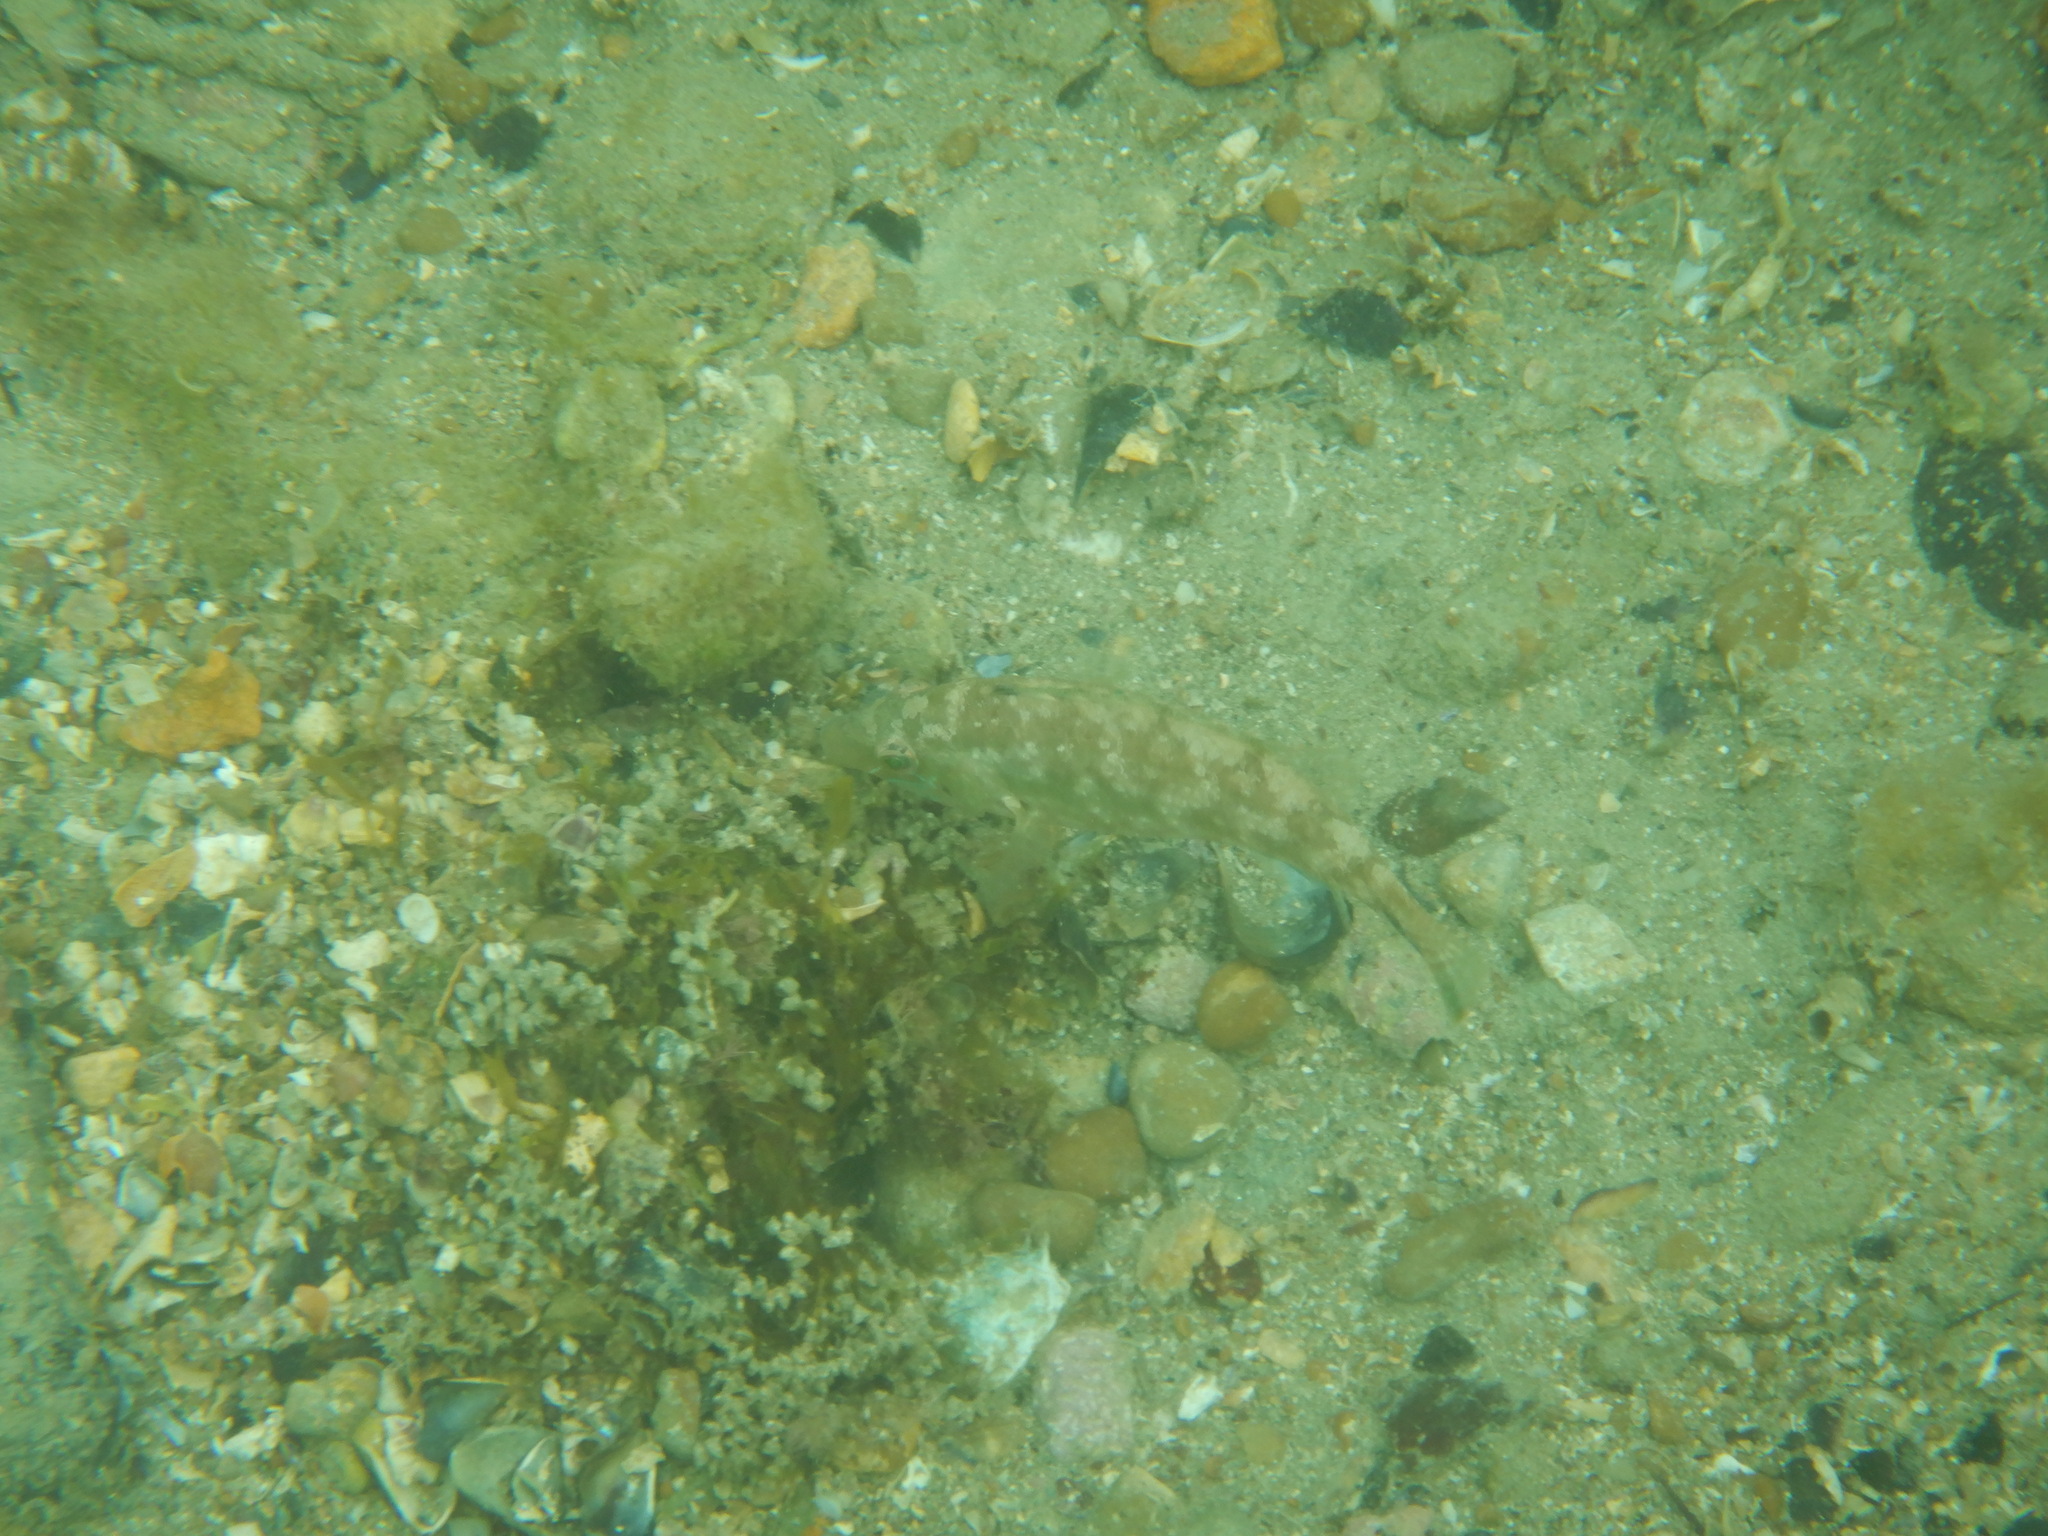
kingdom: Animalia
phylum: Chordata
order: Perciformes
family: Labridae
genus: Symphodus
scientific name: Symphodus cinereus
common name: Grey wrasse
